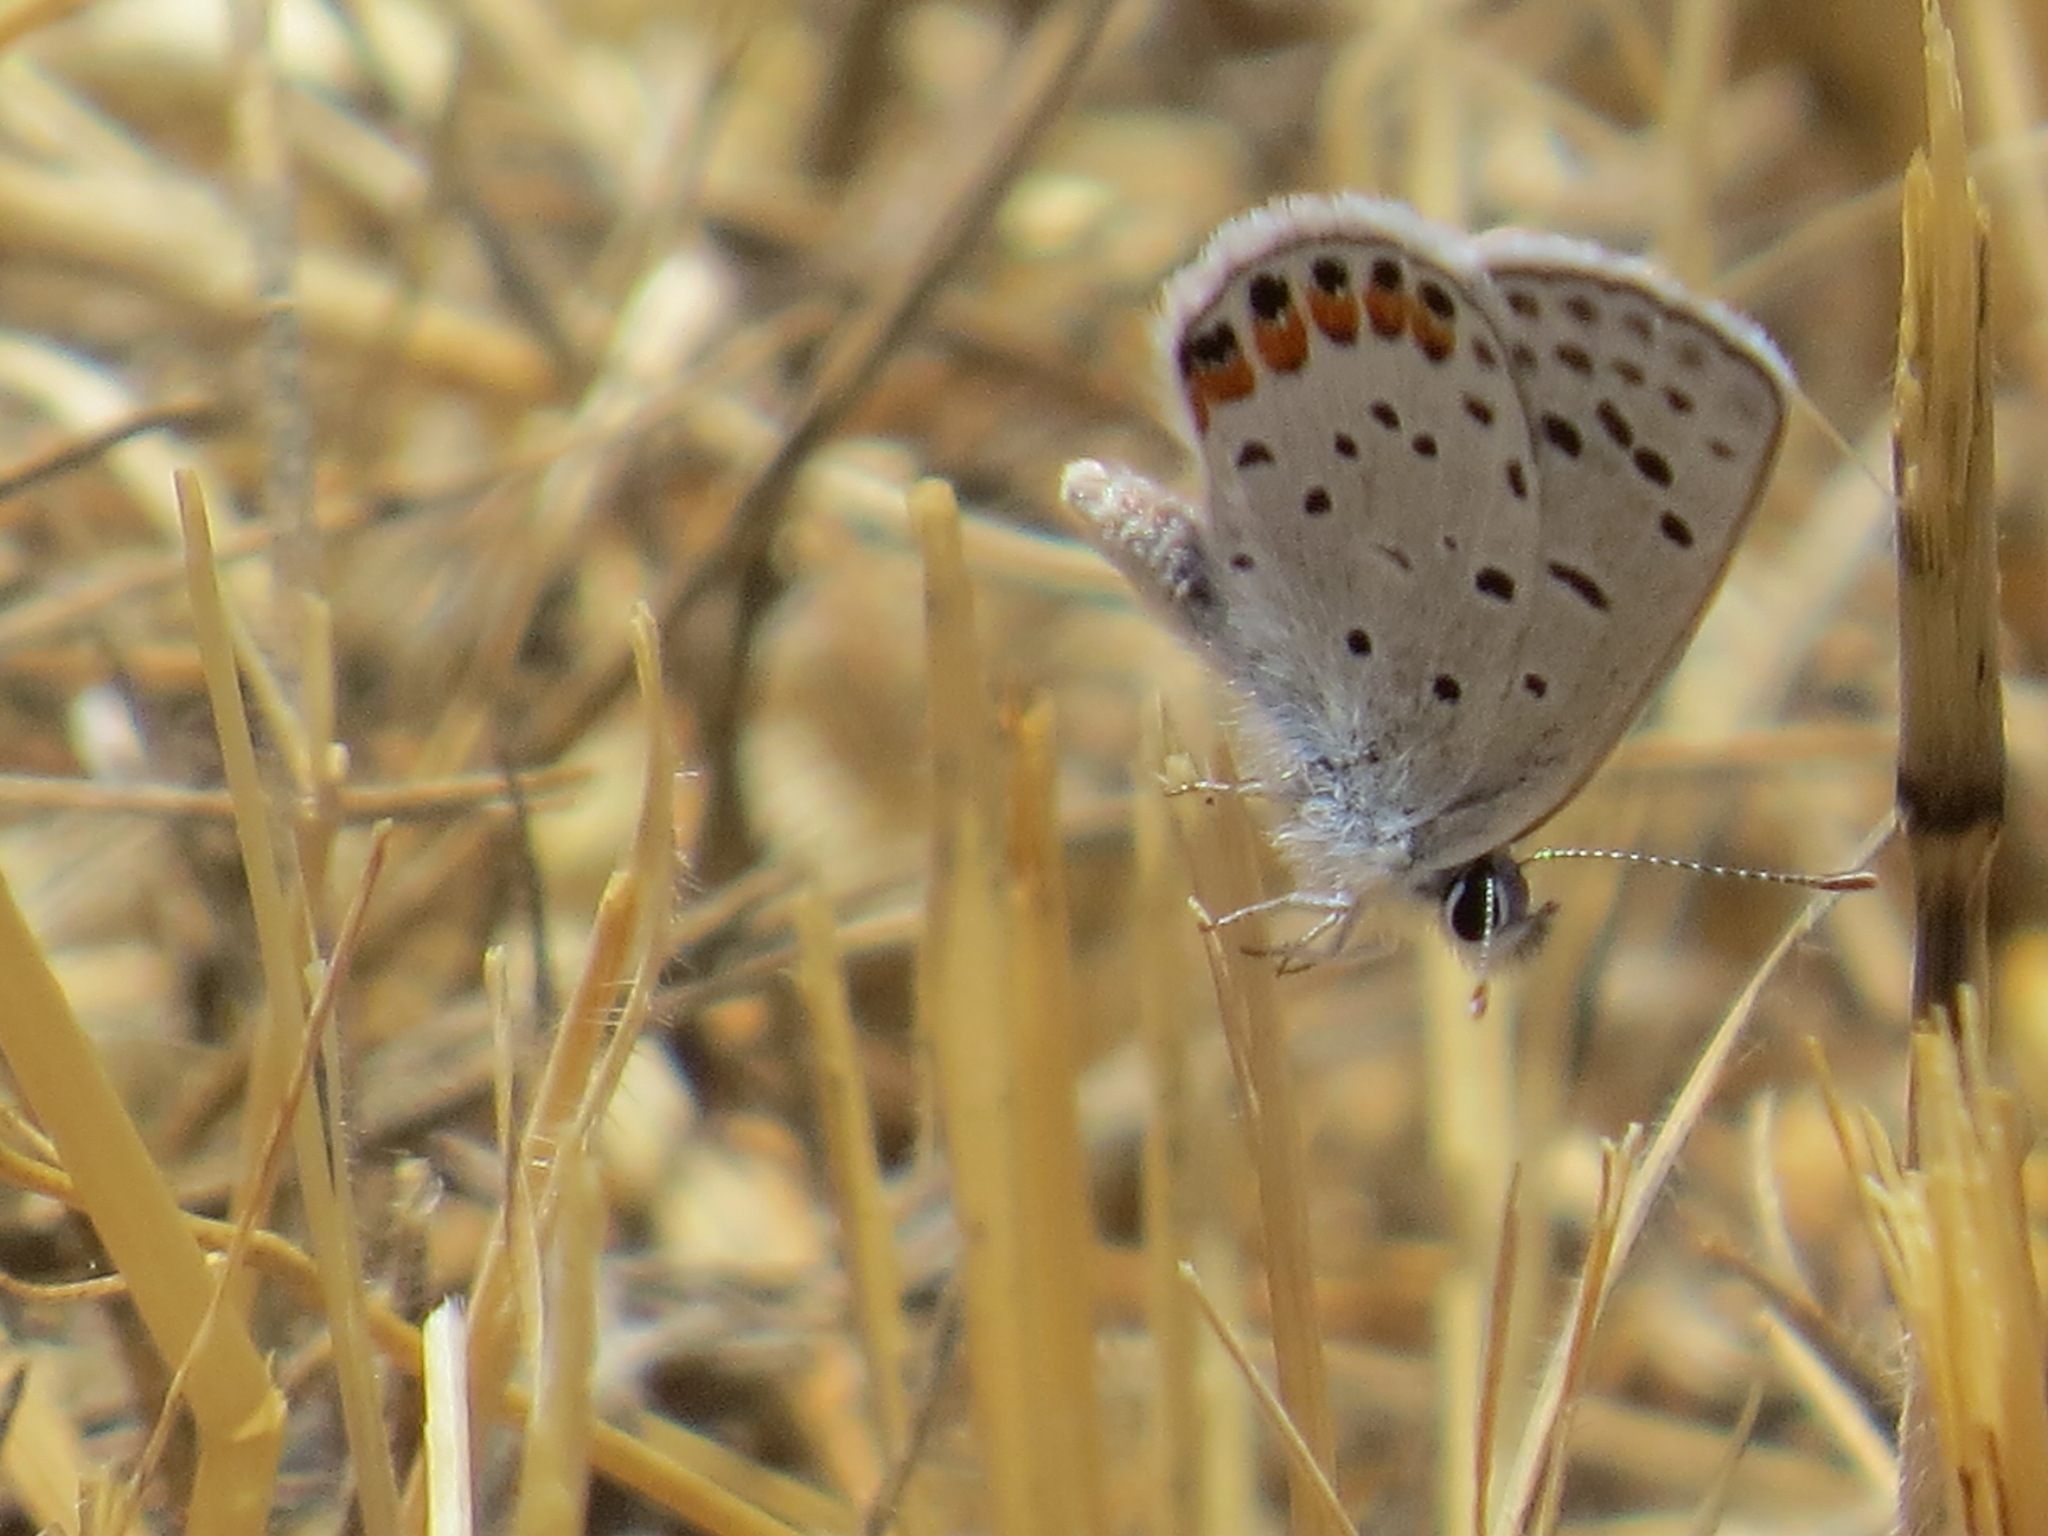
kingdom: Animalia
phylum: Arthropoda
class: Insecta
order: Lepidoptera
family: Lycaenidae
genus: Icaricia
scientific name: Icaricia acmon
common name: Acmon blue
